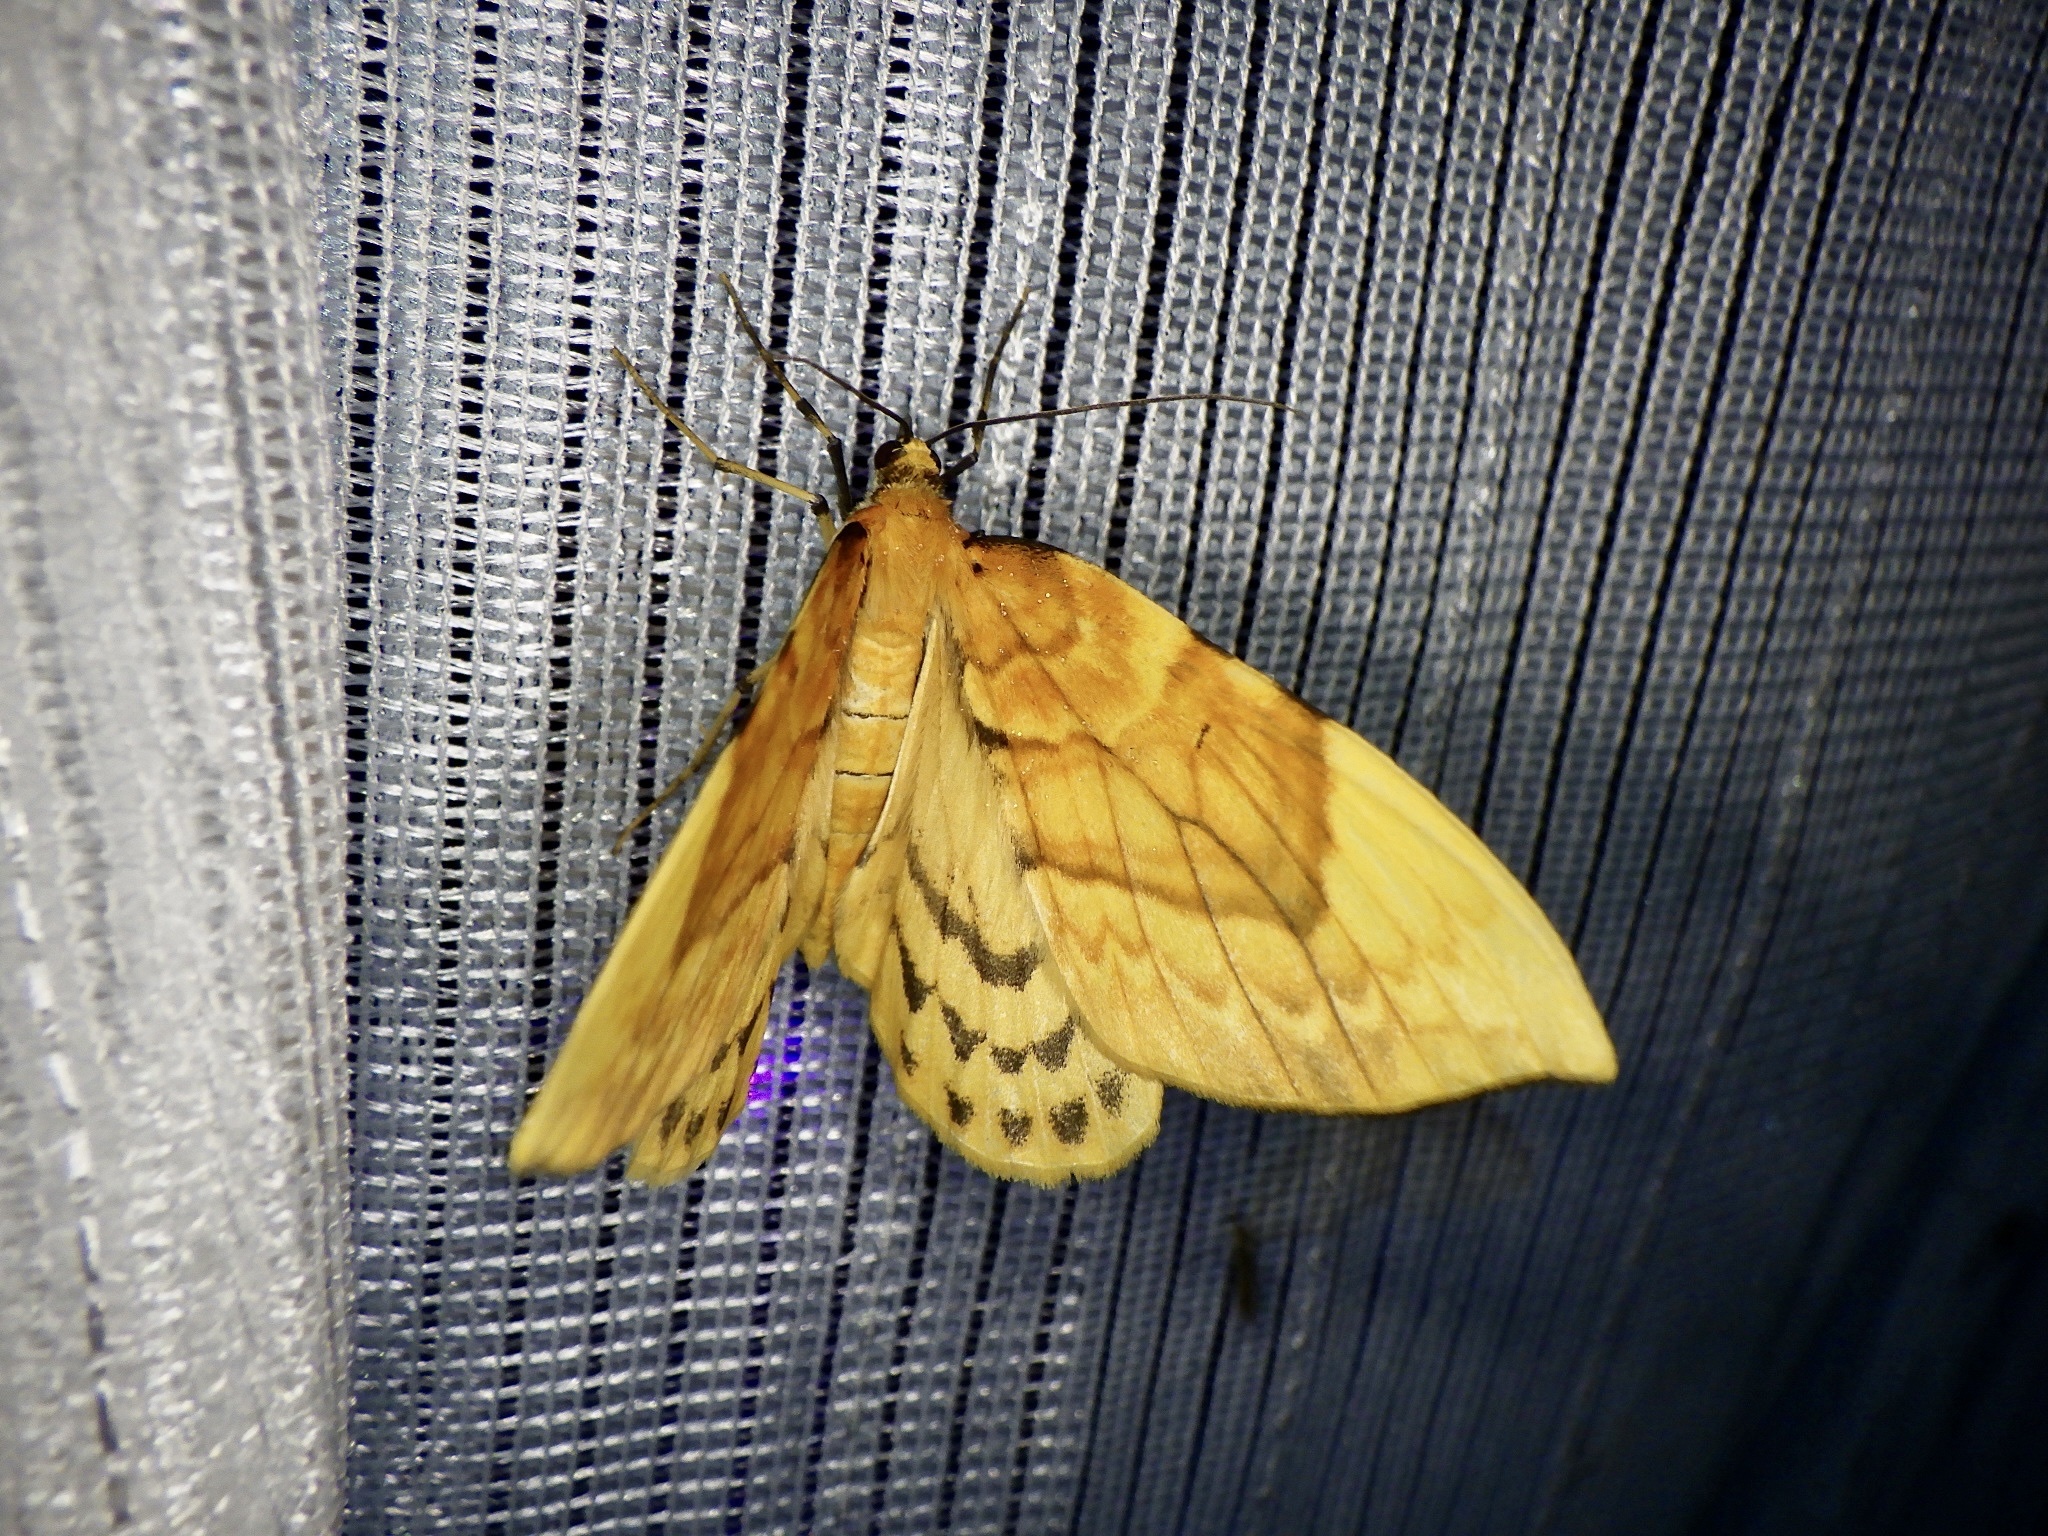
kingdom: Animalia
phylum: Arthropoda
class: Insecta
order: Lepidoptera
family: Geometridae
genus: Gandaritis
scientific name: Gandaritis fixseni
